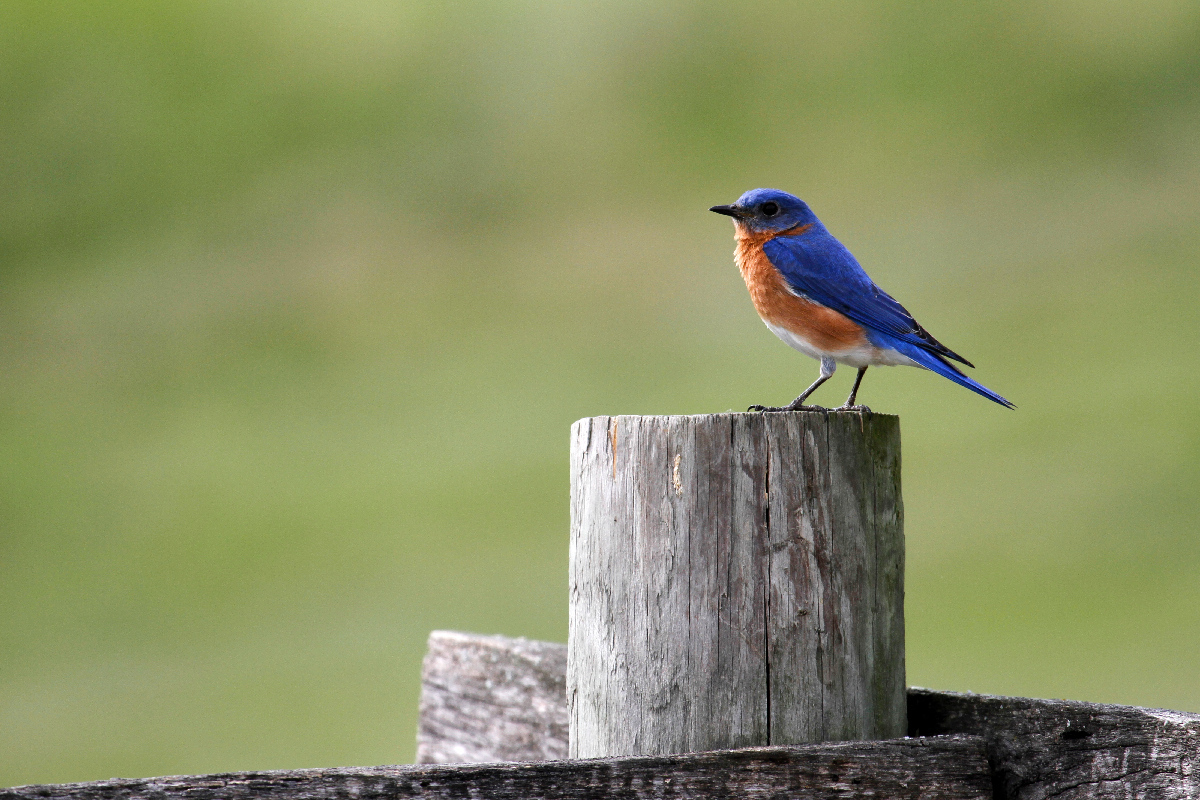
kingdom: Animalia
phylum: Chordata
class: Aves
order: Passeriformes
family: Turdidae
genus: Sialia
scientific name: Sialia sialis
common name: Eastern bluebird
